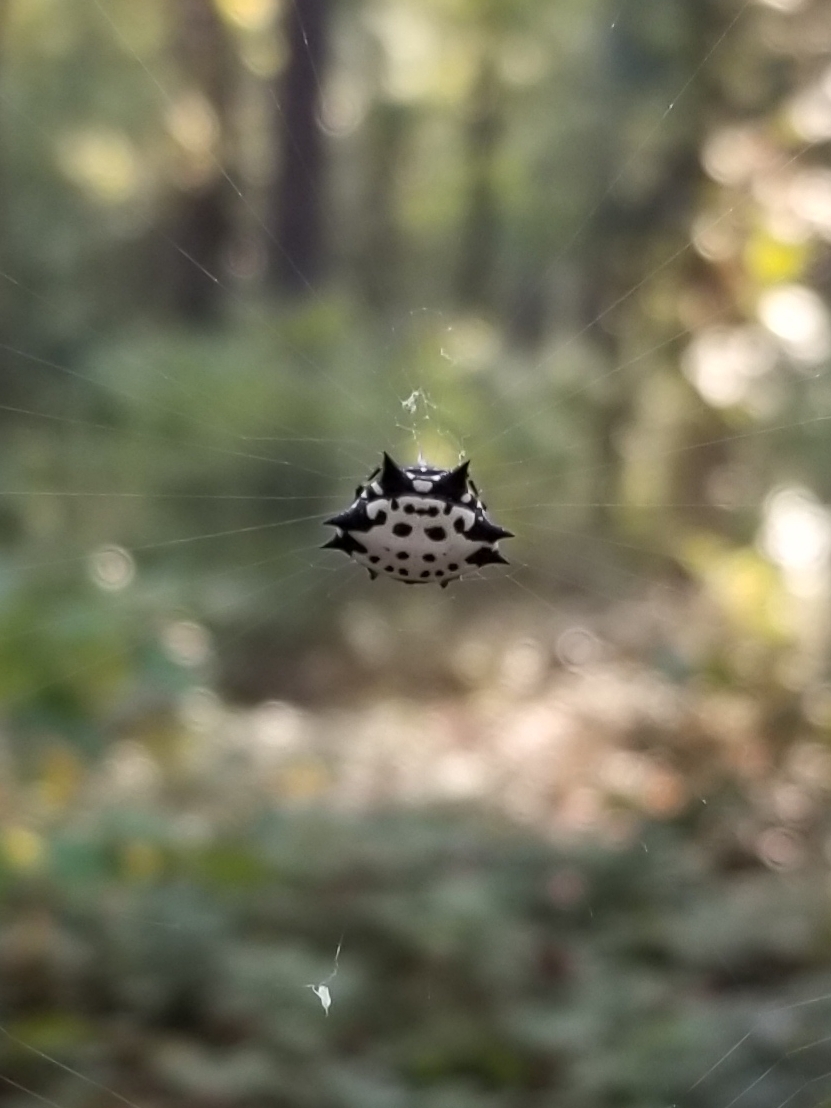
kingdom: Animalia
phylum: Arthropoda
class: Arachnida
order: Araneae
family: Araneidae
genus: Gasteracantha
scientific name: Gasteracantha cancriformis
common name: Orb weavers
